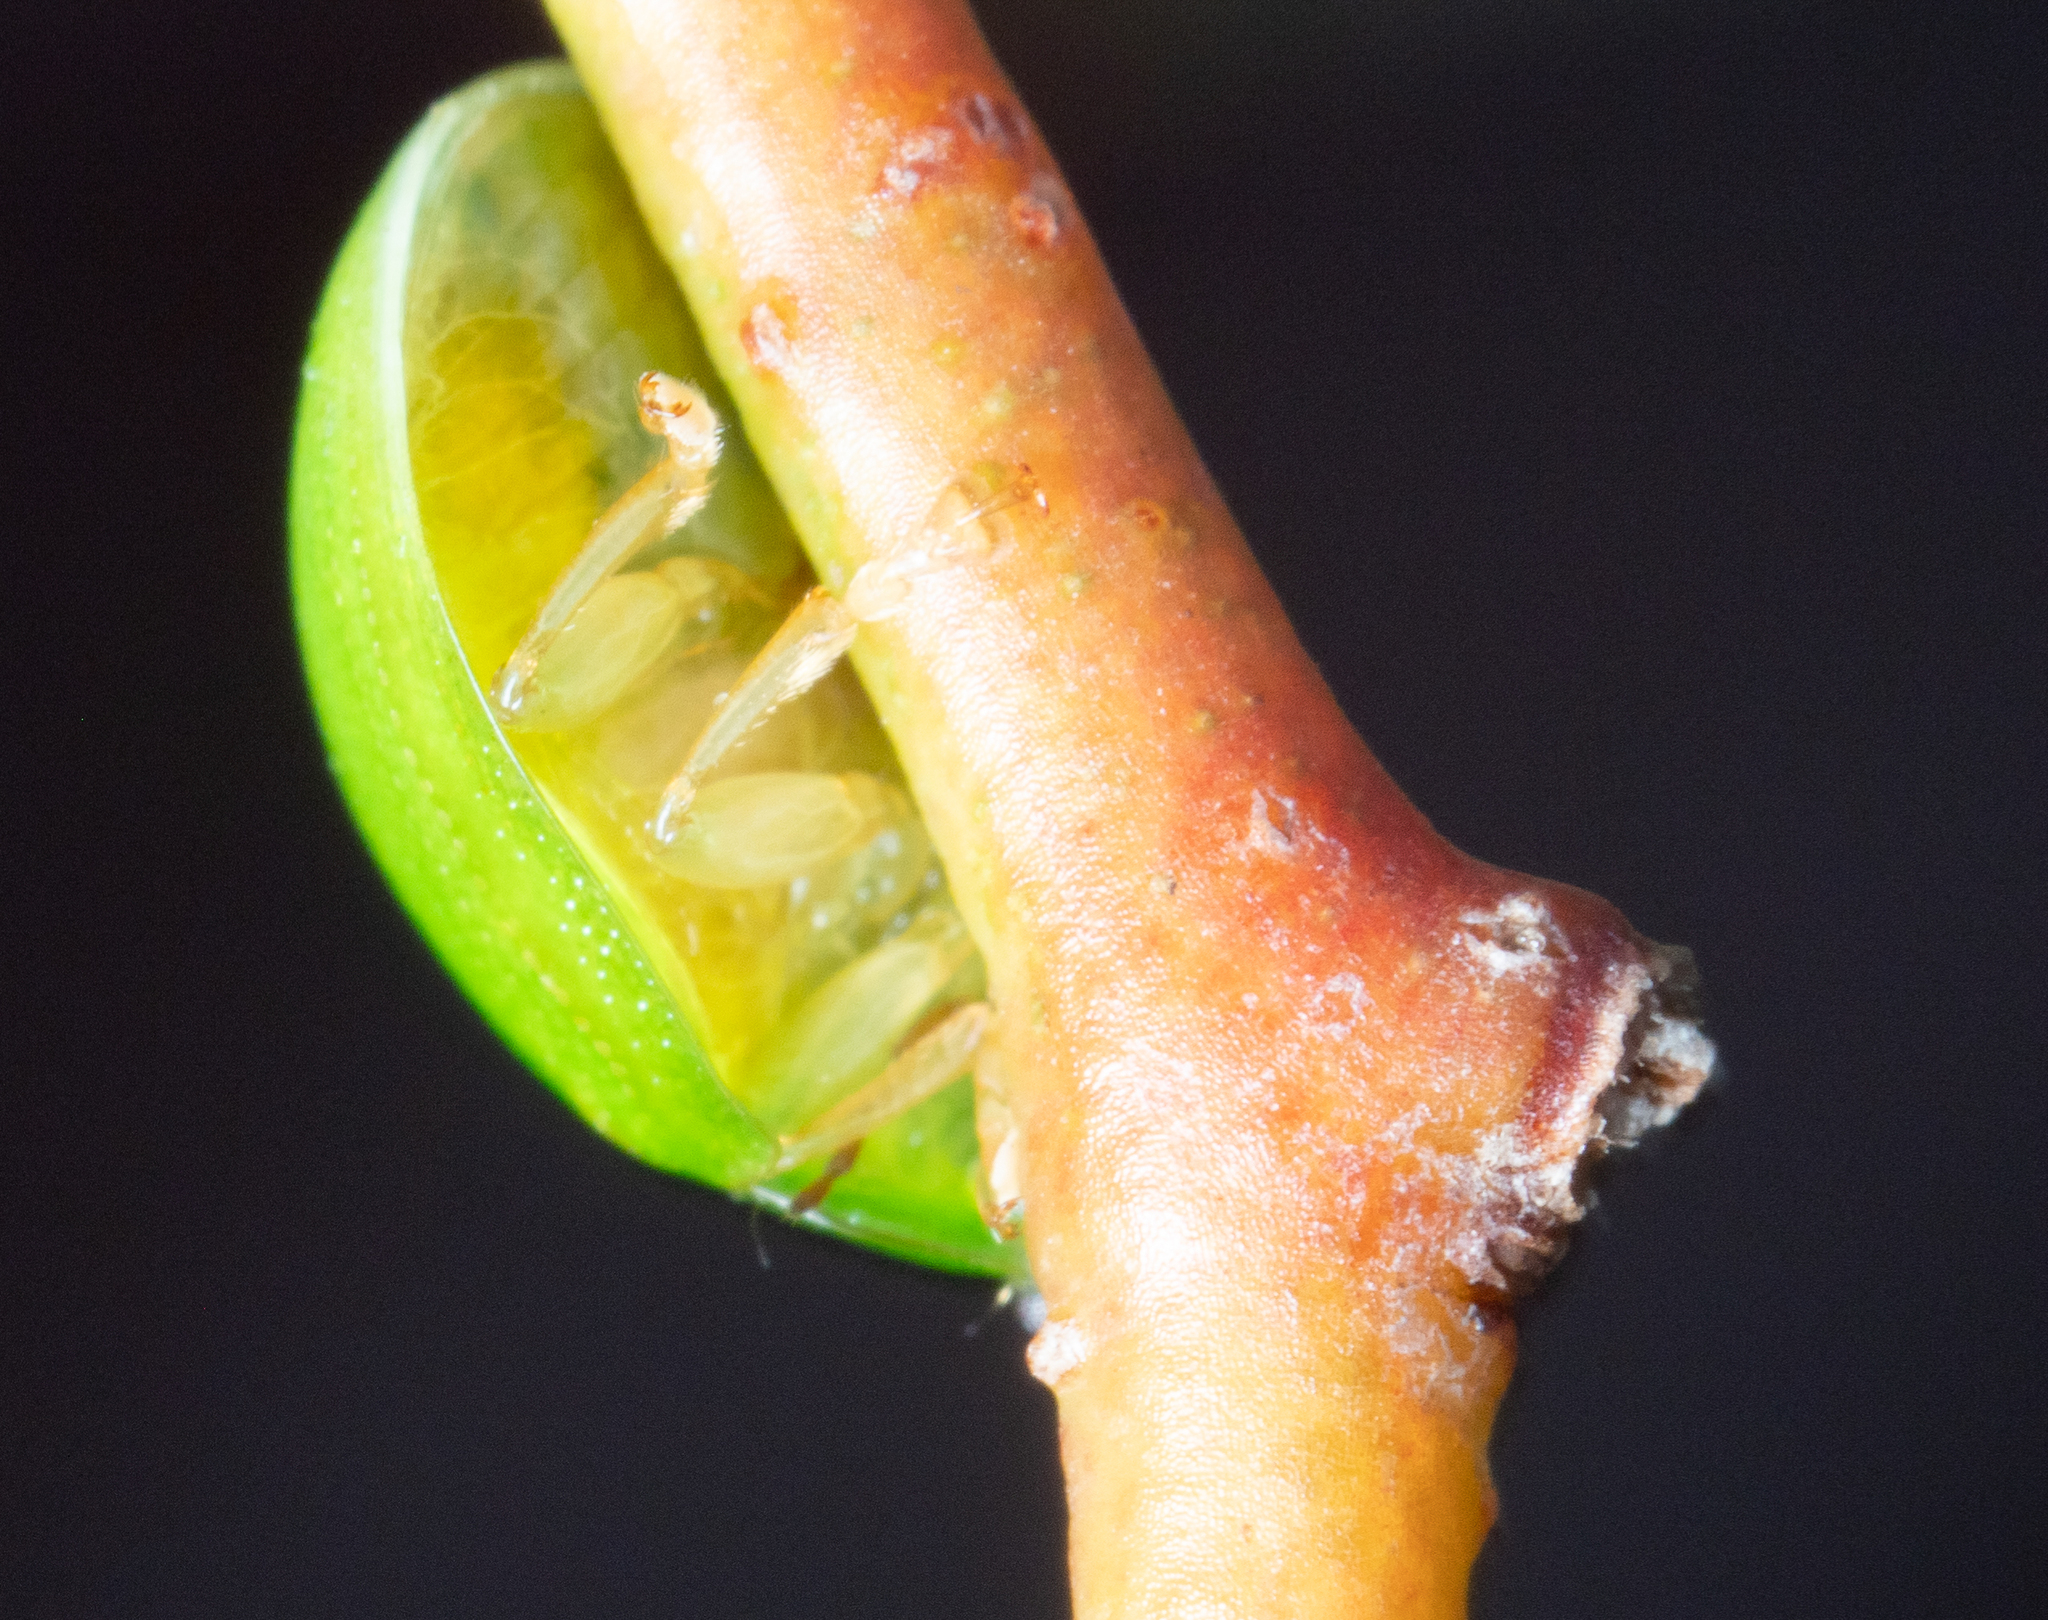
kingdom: Animalia
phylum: Arthropoda
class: Insecta
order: Coleoptera
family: Chrysomelidae
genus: Paropsides
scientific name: Paropsides
